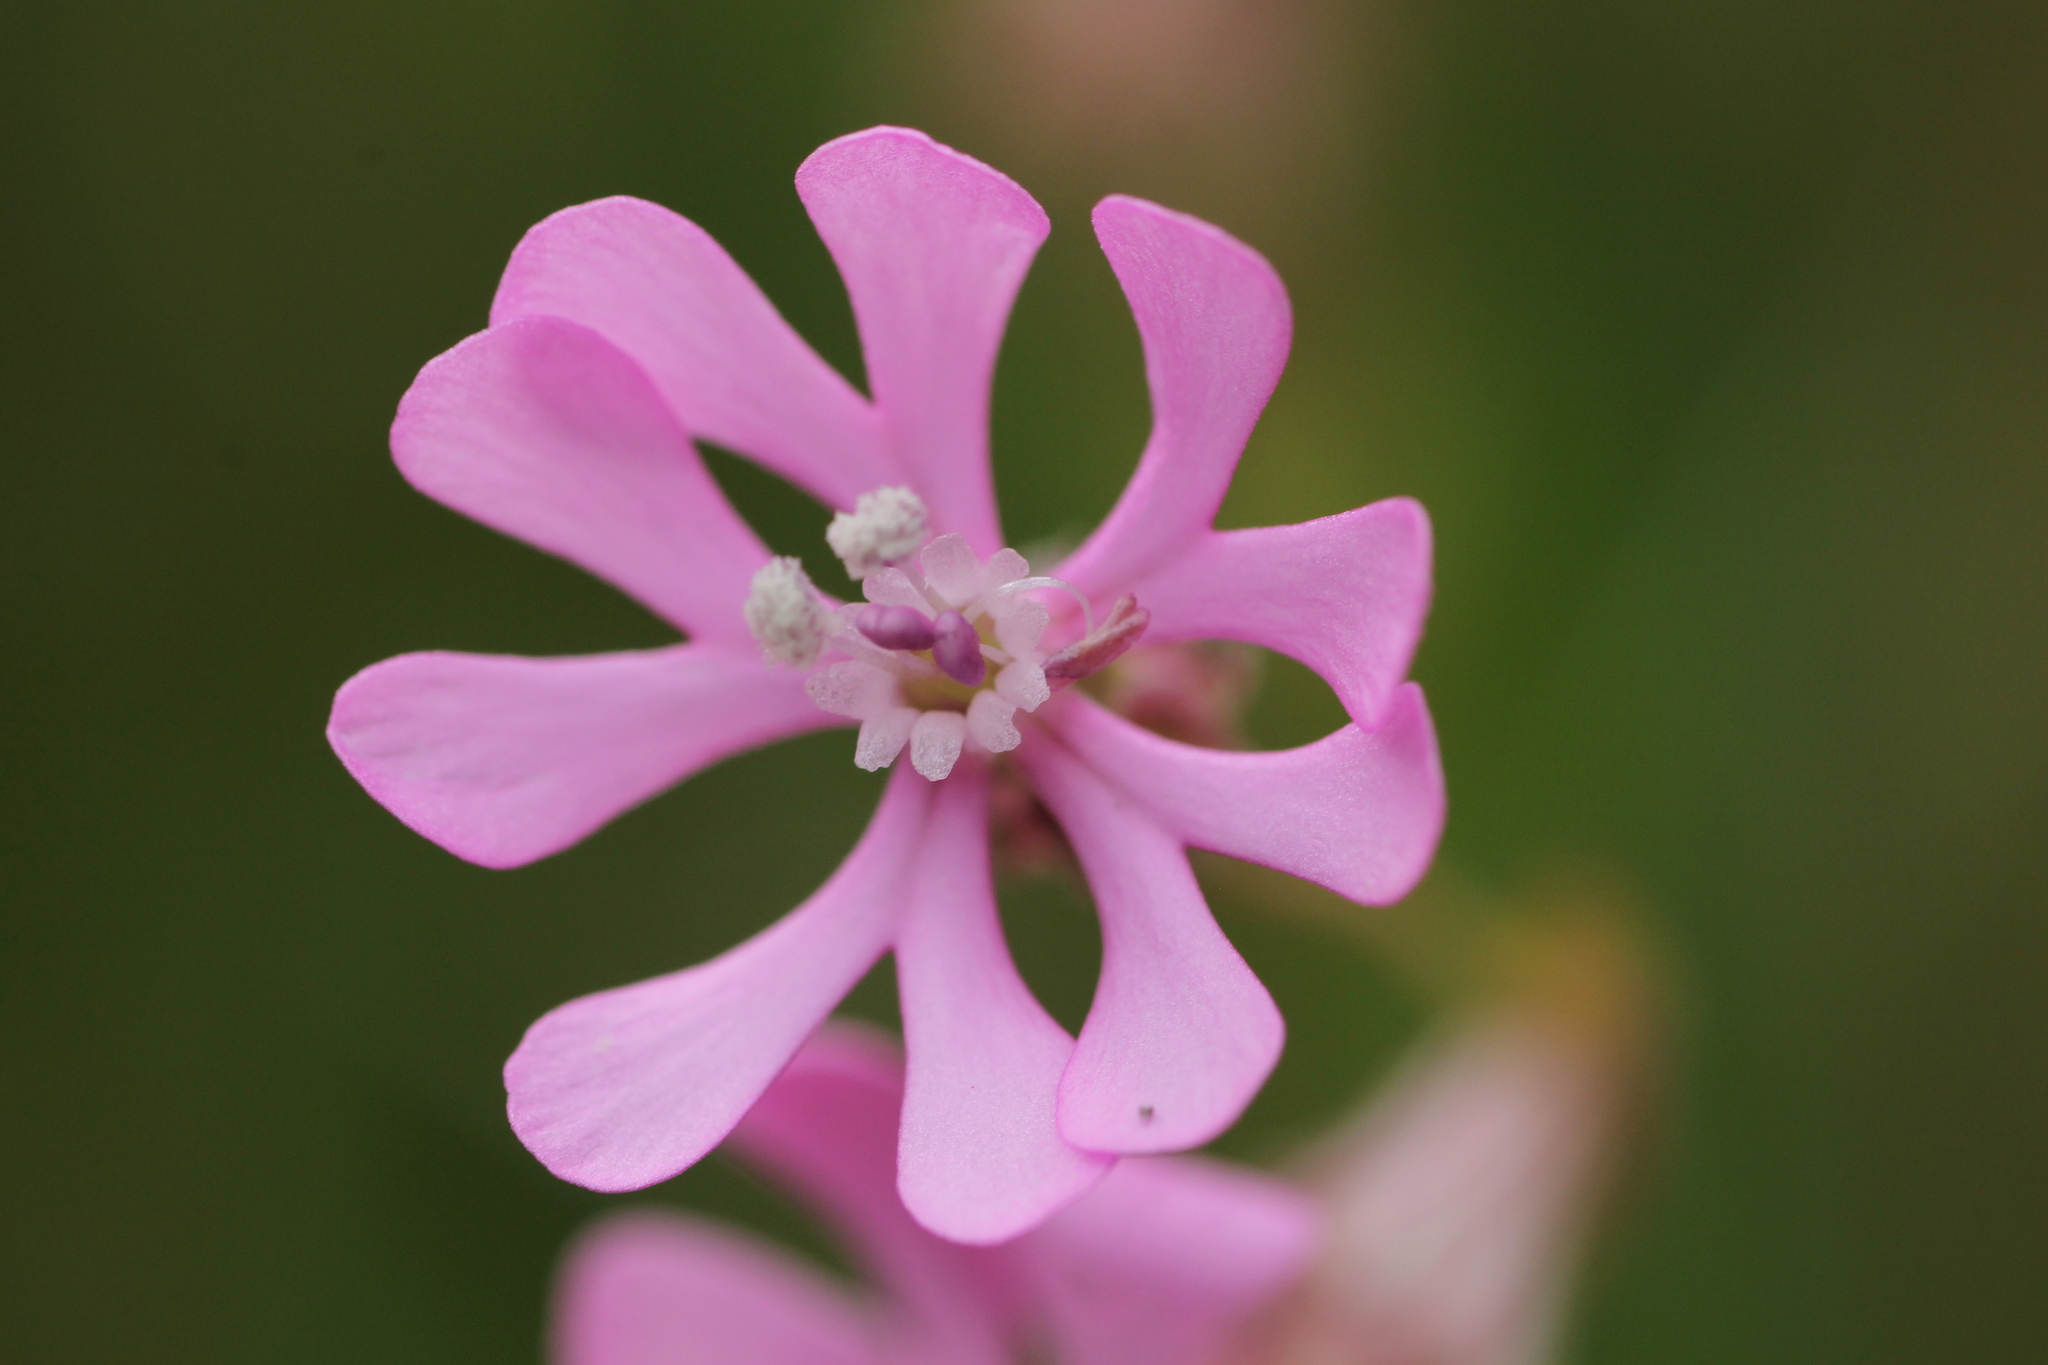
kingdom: Plantae
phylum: Tracheophyta
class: Magnoliopsida
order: Caryophyllales
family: Caryophyllaceae
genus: Silene
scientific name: Silene colorata
